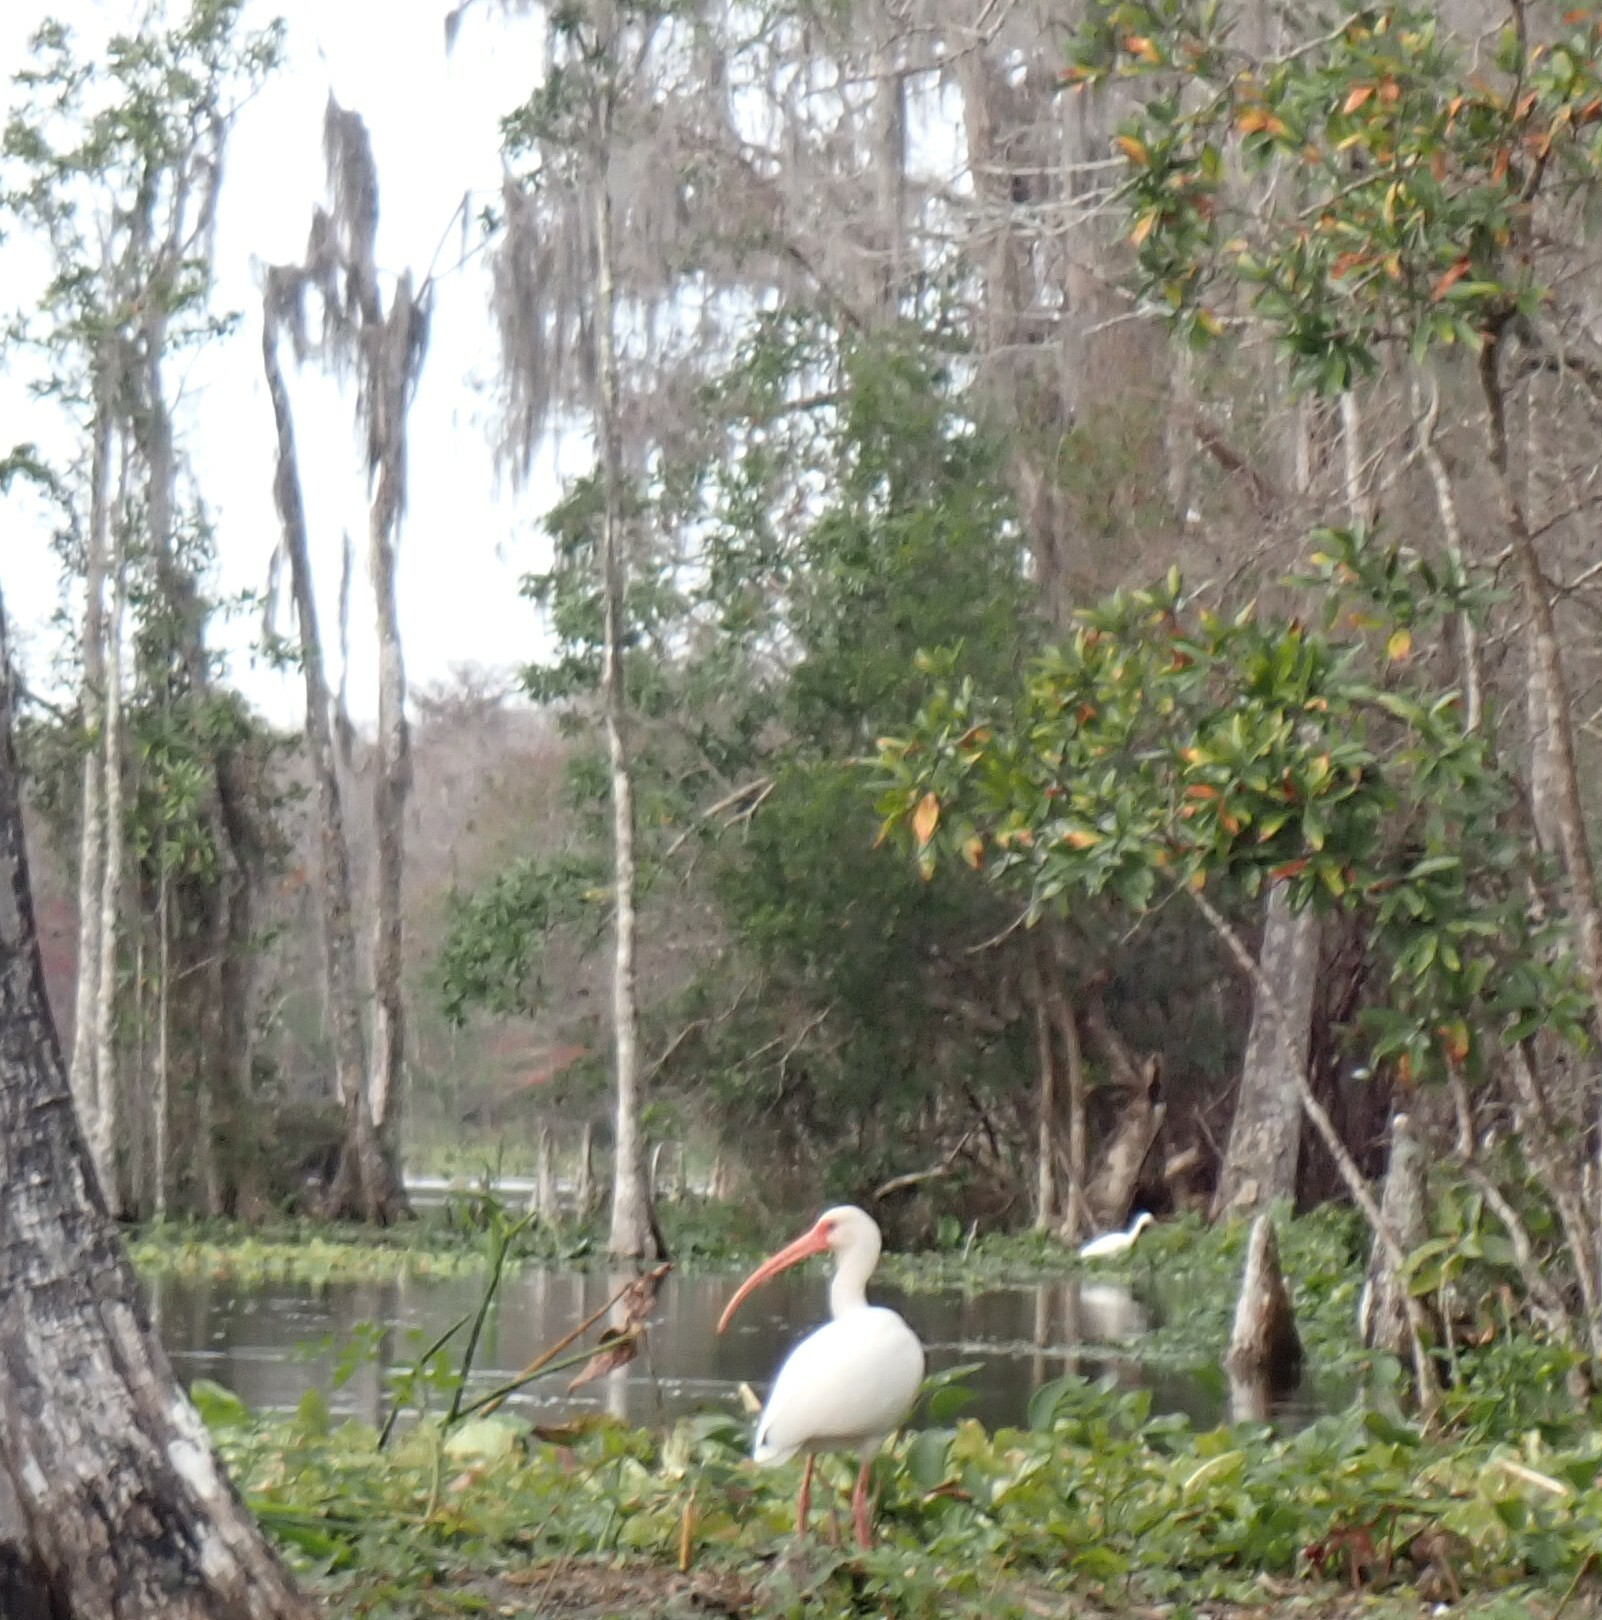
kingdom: Animalia
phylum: Chordata
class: Aves
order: Pelecaniformes
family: Threskiornithidae
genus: Eudocimus
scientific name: Eudocimus albus
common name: White ibis
